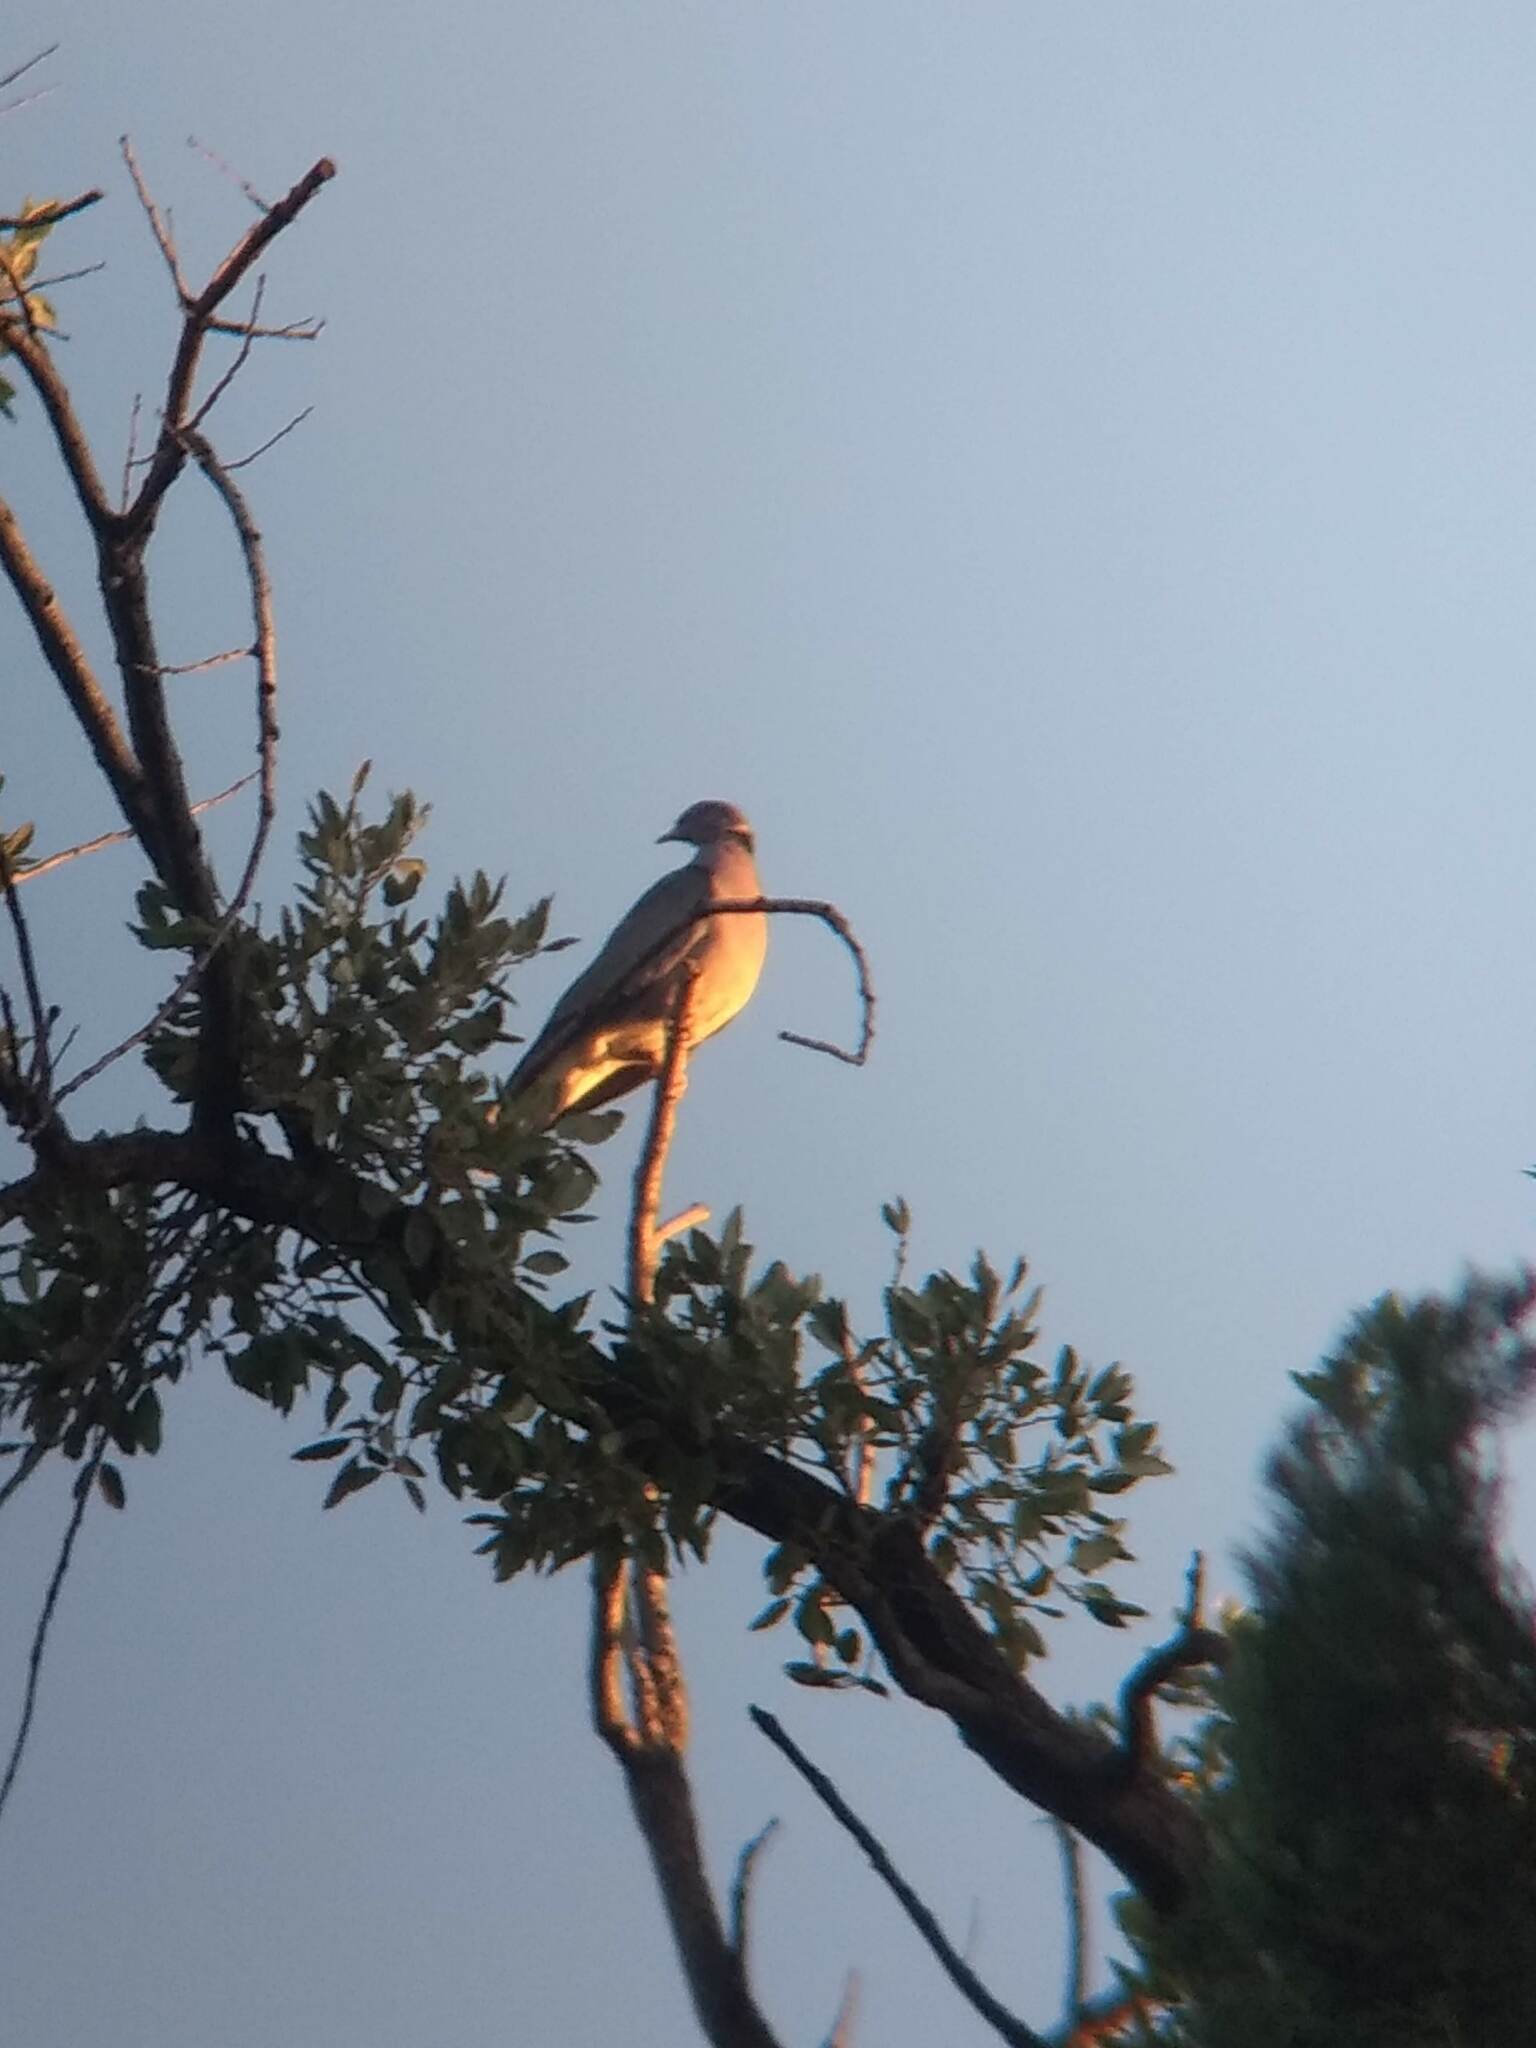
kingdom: Animalia
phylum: Chordata
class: Aves
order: Columbiformes
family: Columbidae
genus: Patagioenas
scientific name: Patagioenas fasciata
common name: Band-tailed pigeon
